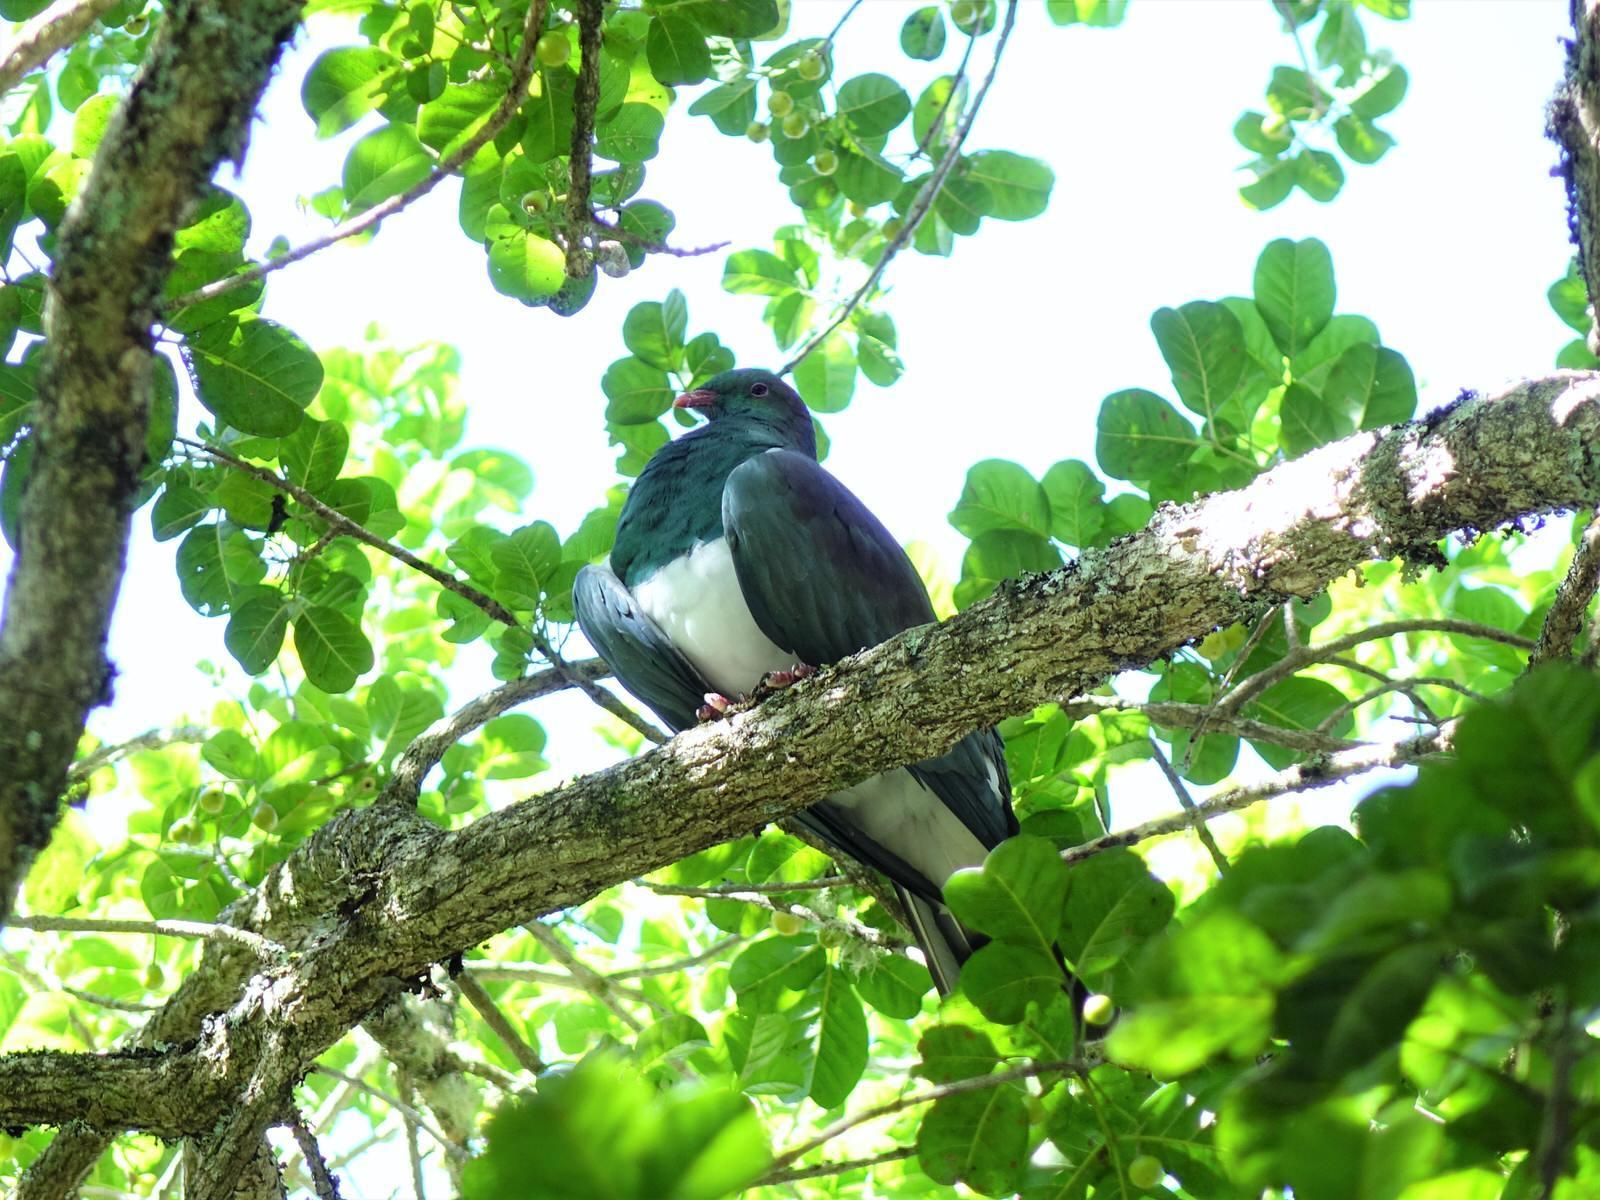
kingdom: Animalia
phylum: Chordata
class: Aves
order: Columbiformes
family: Columbidae
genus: Hemiphaga
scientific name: Hemiphaga novaeseelandiae
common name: New zealand pigeon
